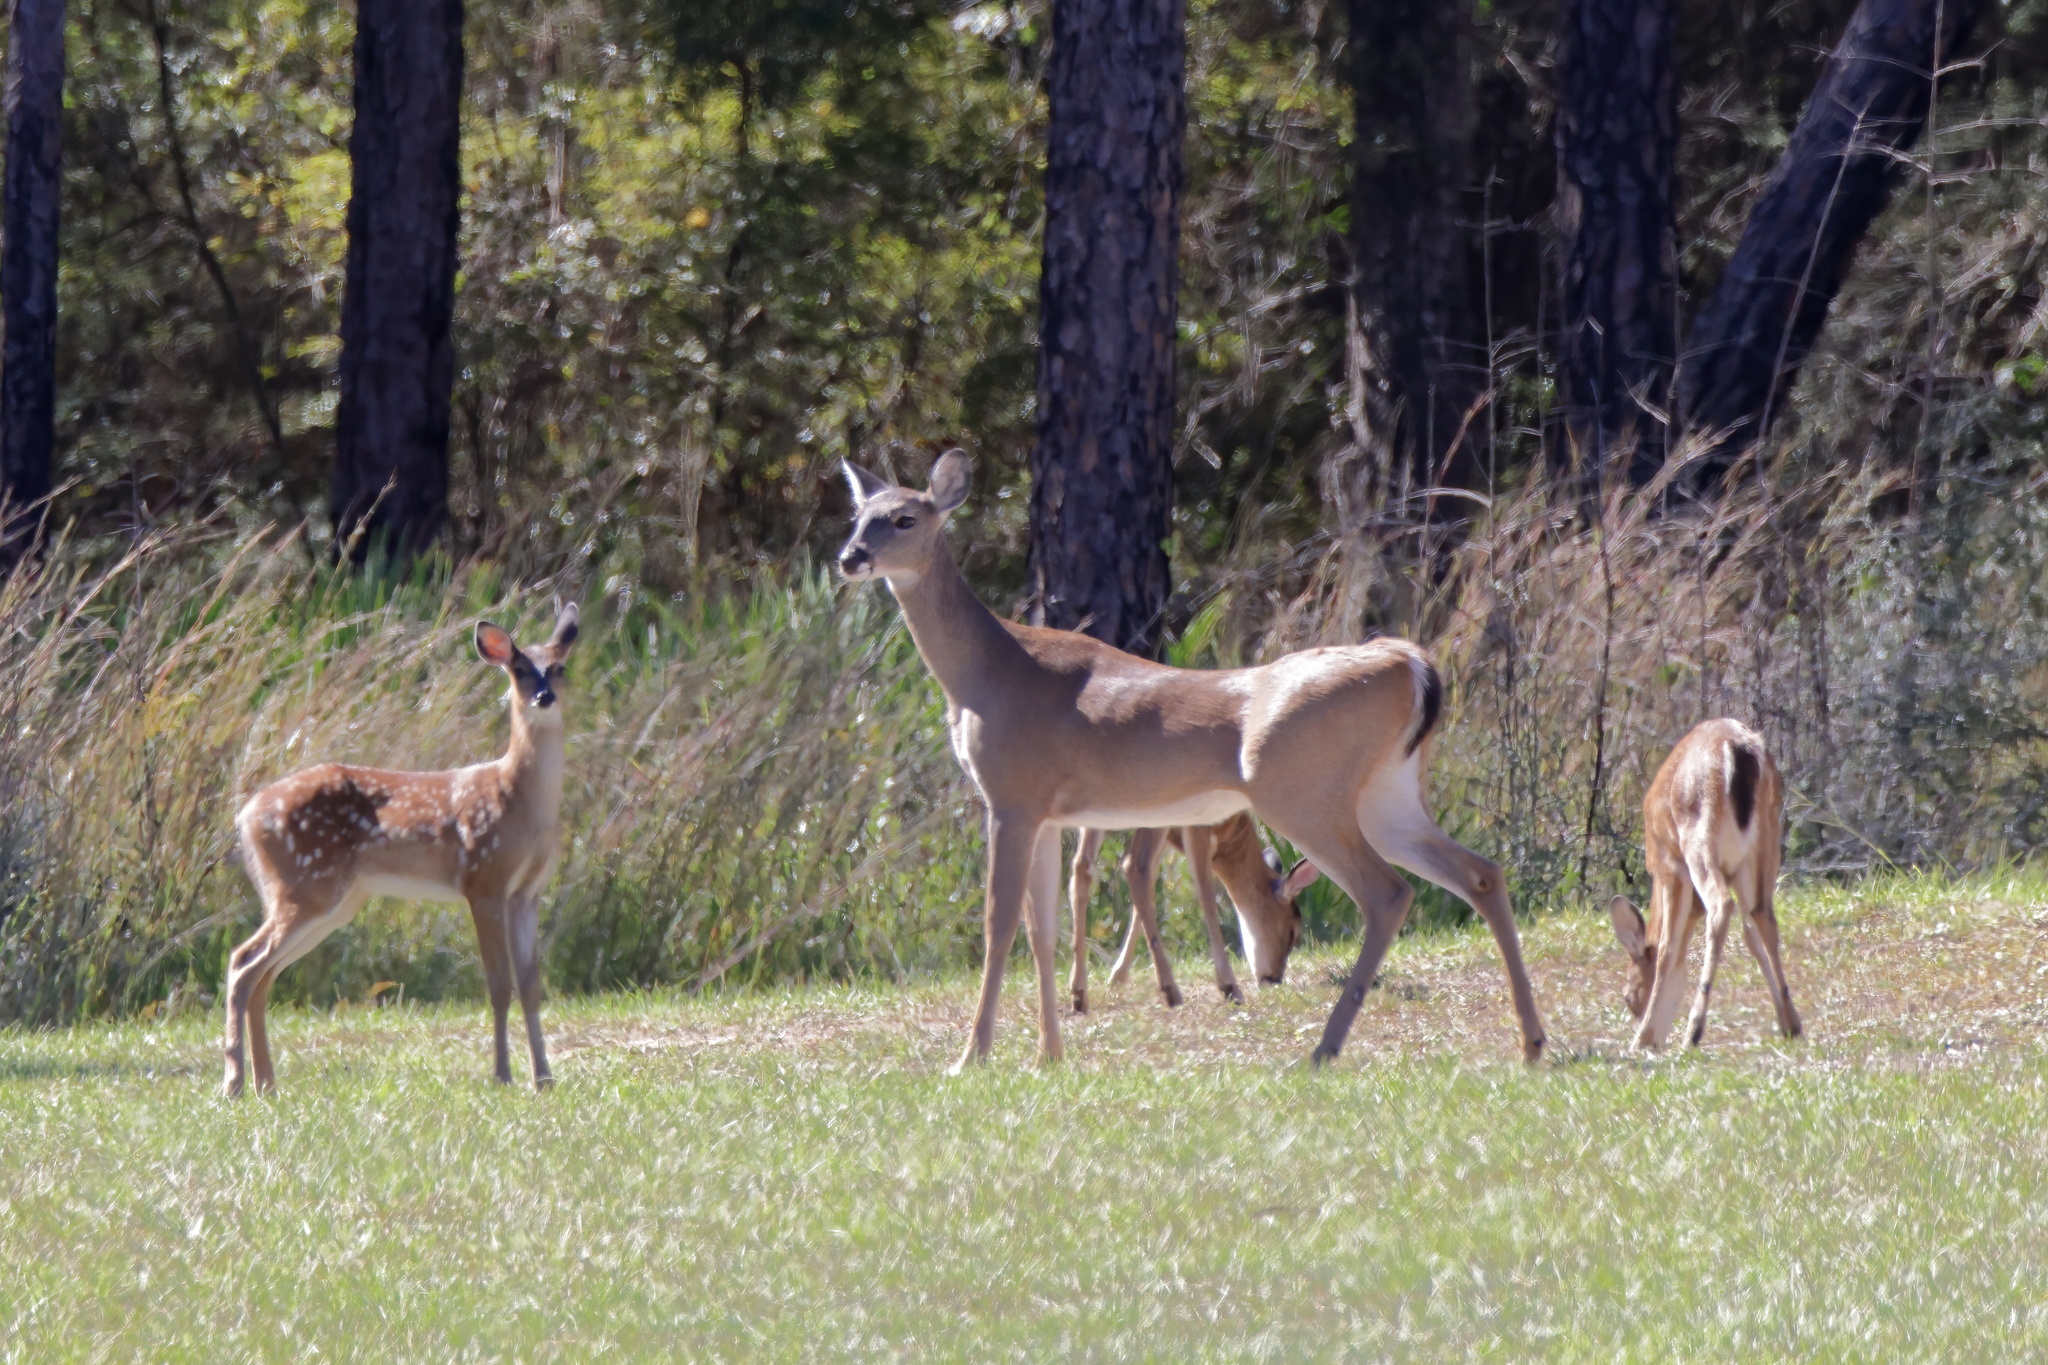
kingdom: Animalia
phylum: Chordata
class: Mammalia
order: Artiodactyla
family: Cervidae
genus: Odocoileus
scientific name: Odocoileus virginianus
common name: White-tailed deer
